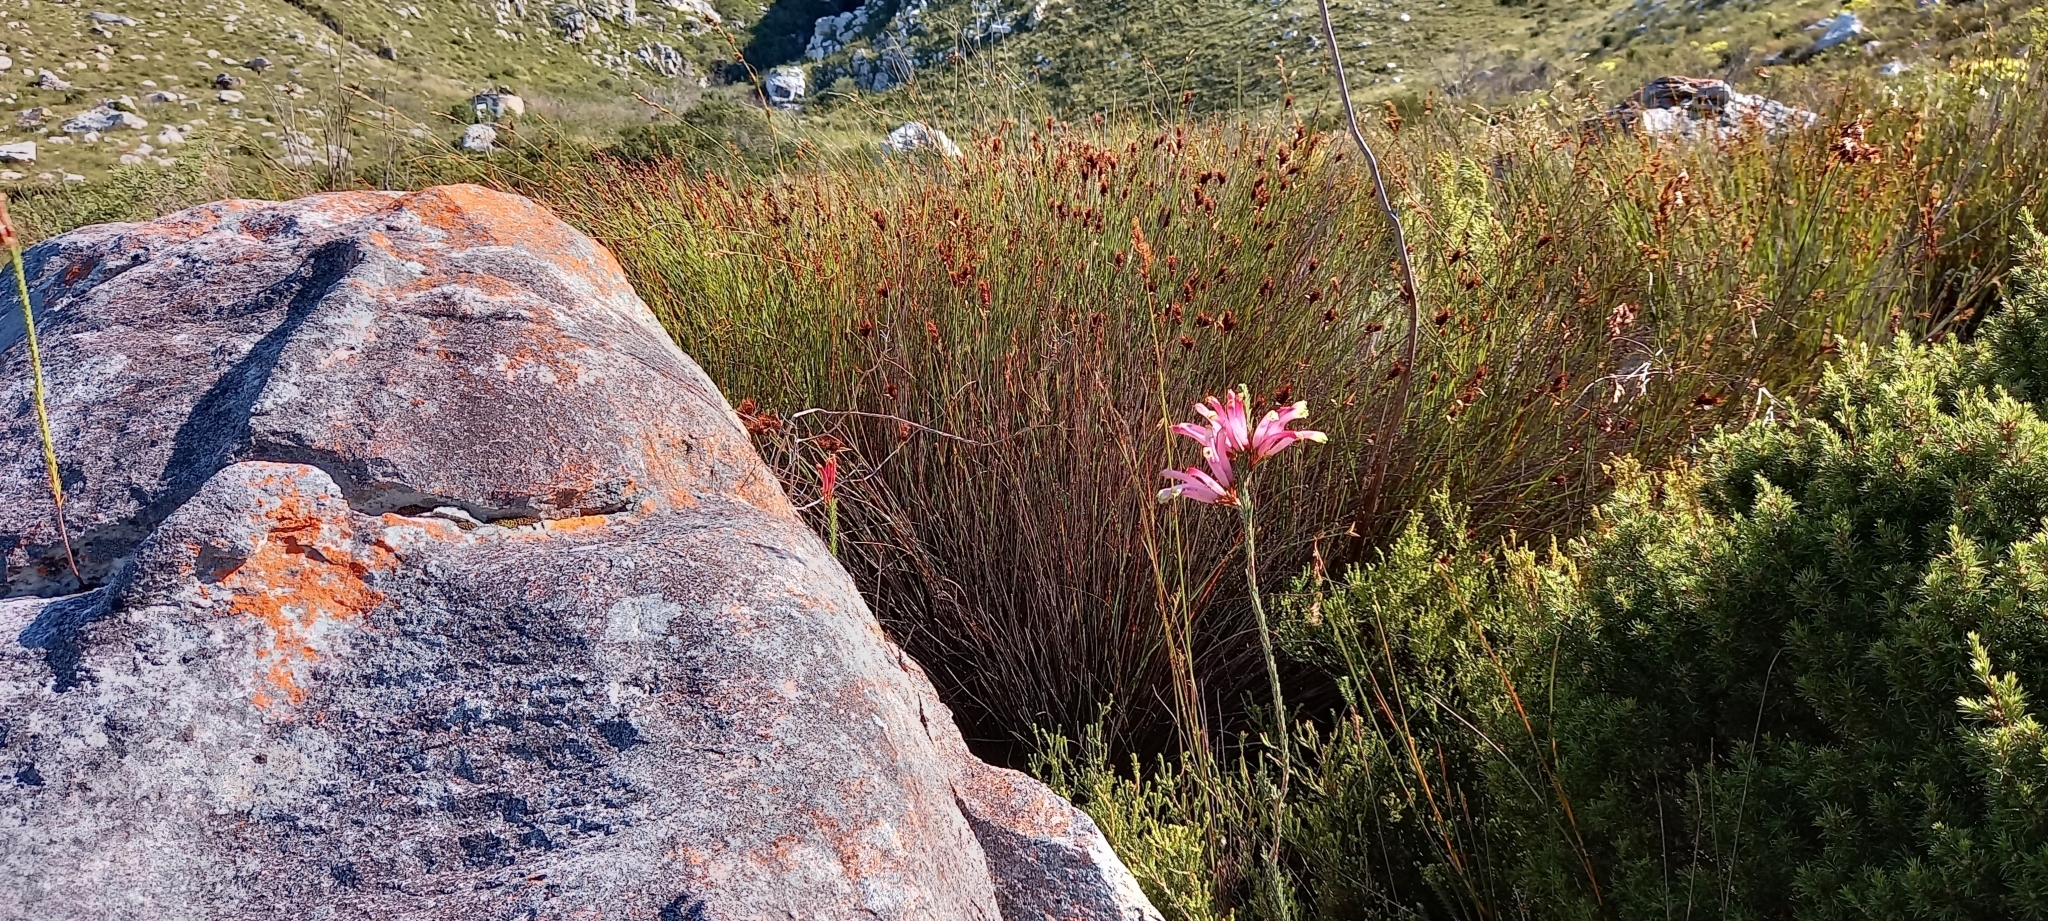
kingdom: Plantae
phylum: Tracheophyta
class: Magnoliopsida
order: Ericales
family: Ericaceae
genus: Erica
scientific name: Erica fascicularis
